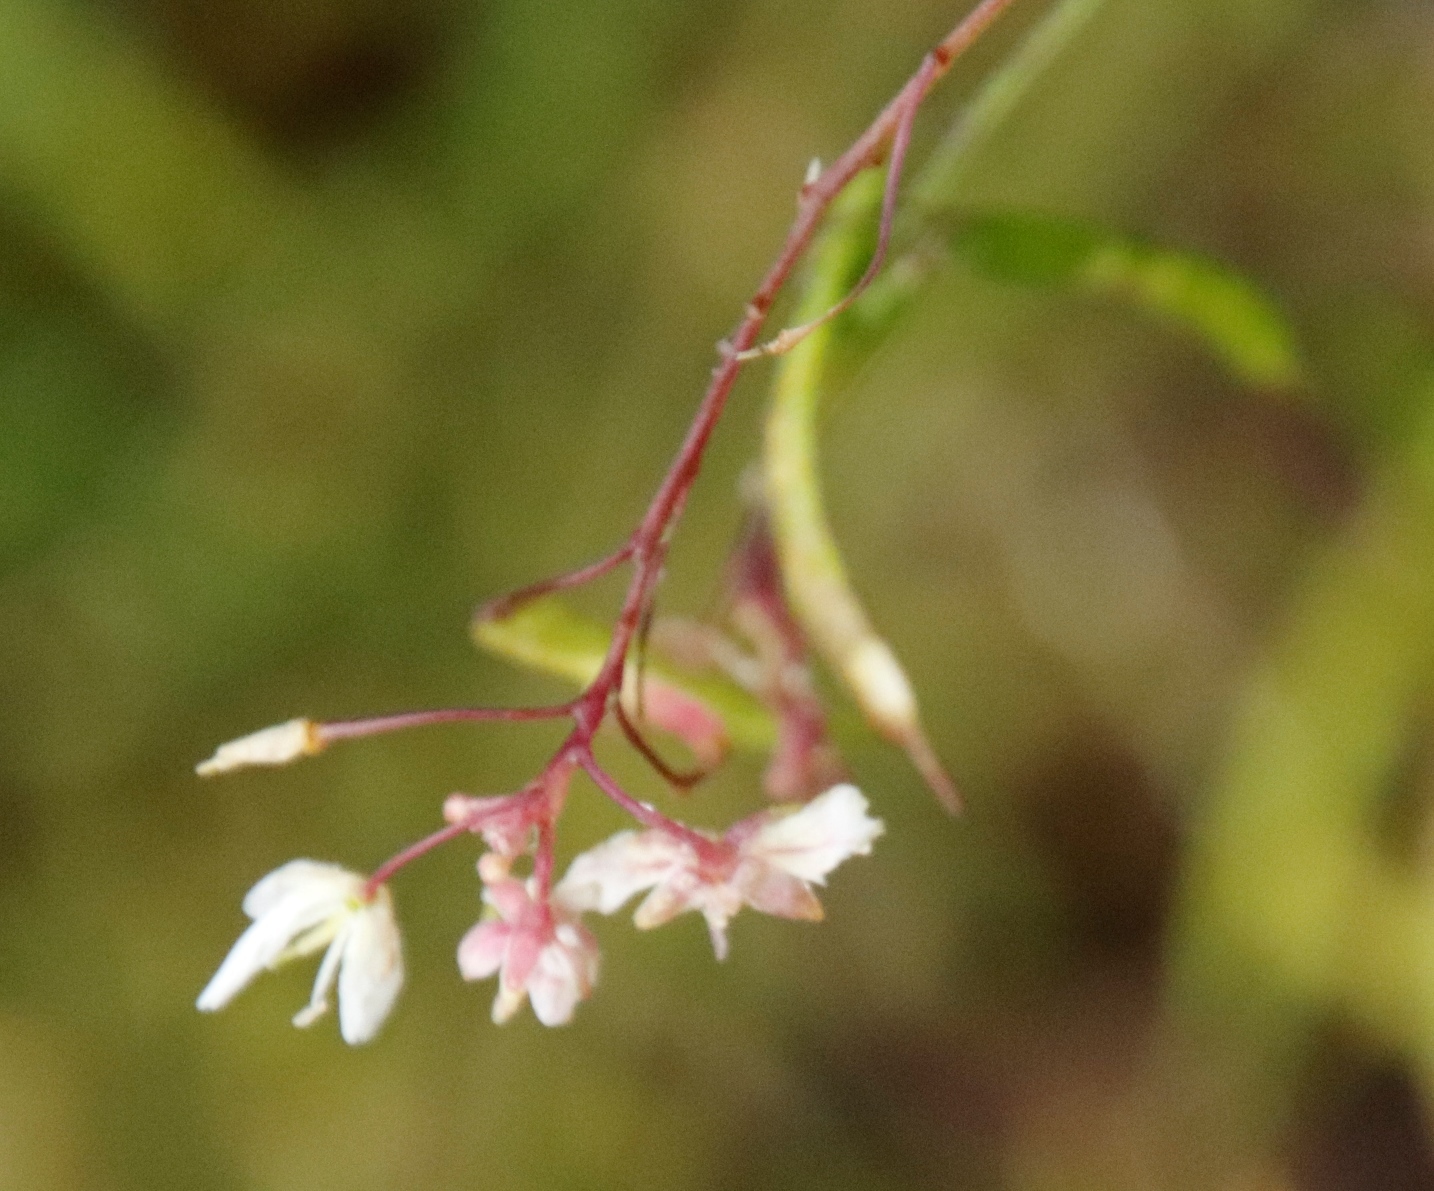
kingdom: Plantae
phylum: Tracheophyta
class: Magnoliopsida
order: Brassicales
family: Brassicaceae
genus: Heliophila
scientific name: Heliophila meyeri
